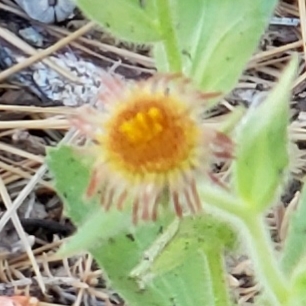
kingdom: Plantae
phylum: Tracheophyta
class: Magnoliopsida
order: Asterales
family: Asteraceae
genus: Hulsea
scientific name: Hulsea heterochroma
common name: Redray alpinegold
